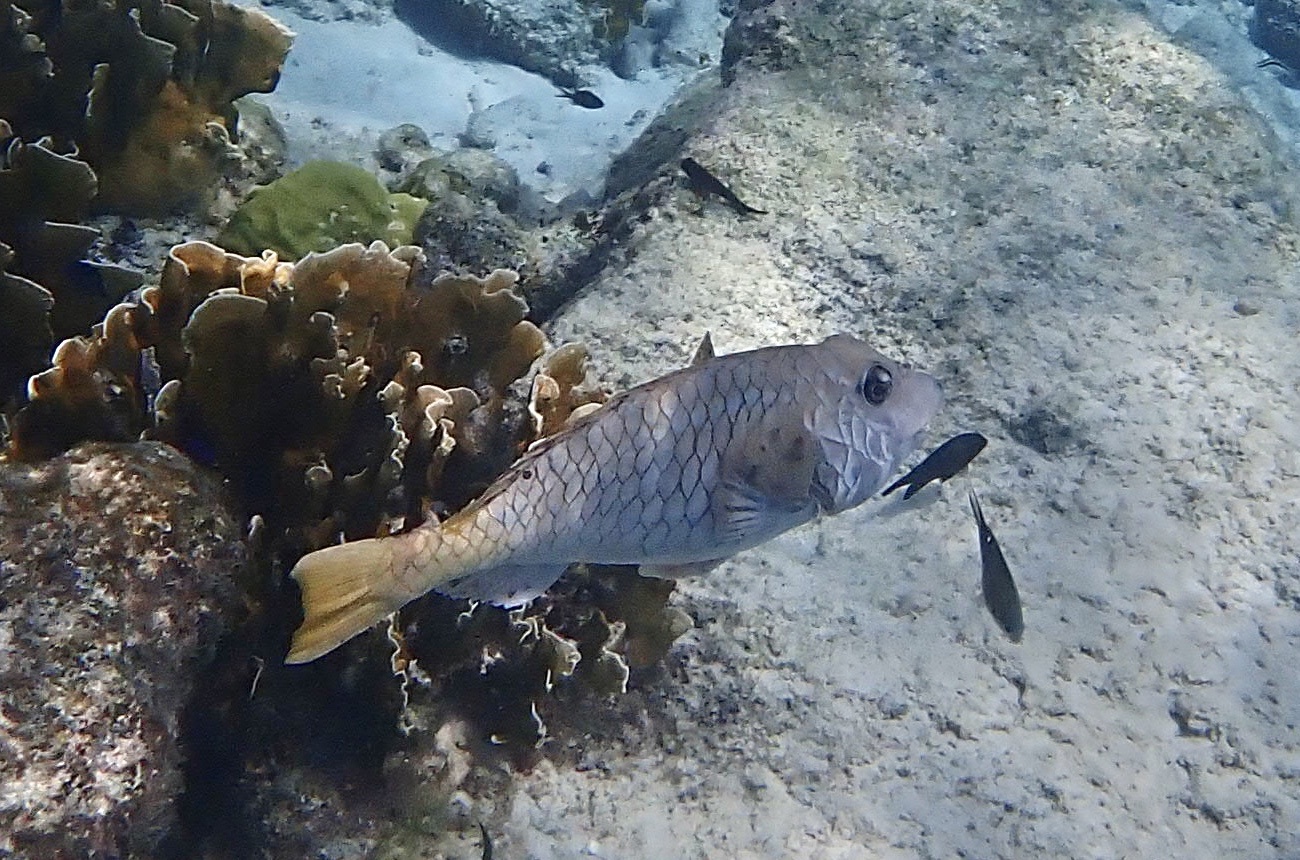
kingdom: Animalia
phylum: Chordata
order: Perciformes
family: Scaridae
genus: Sparisoma
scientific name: Sparisoma rubripinne
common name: Redfin parrotfish
